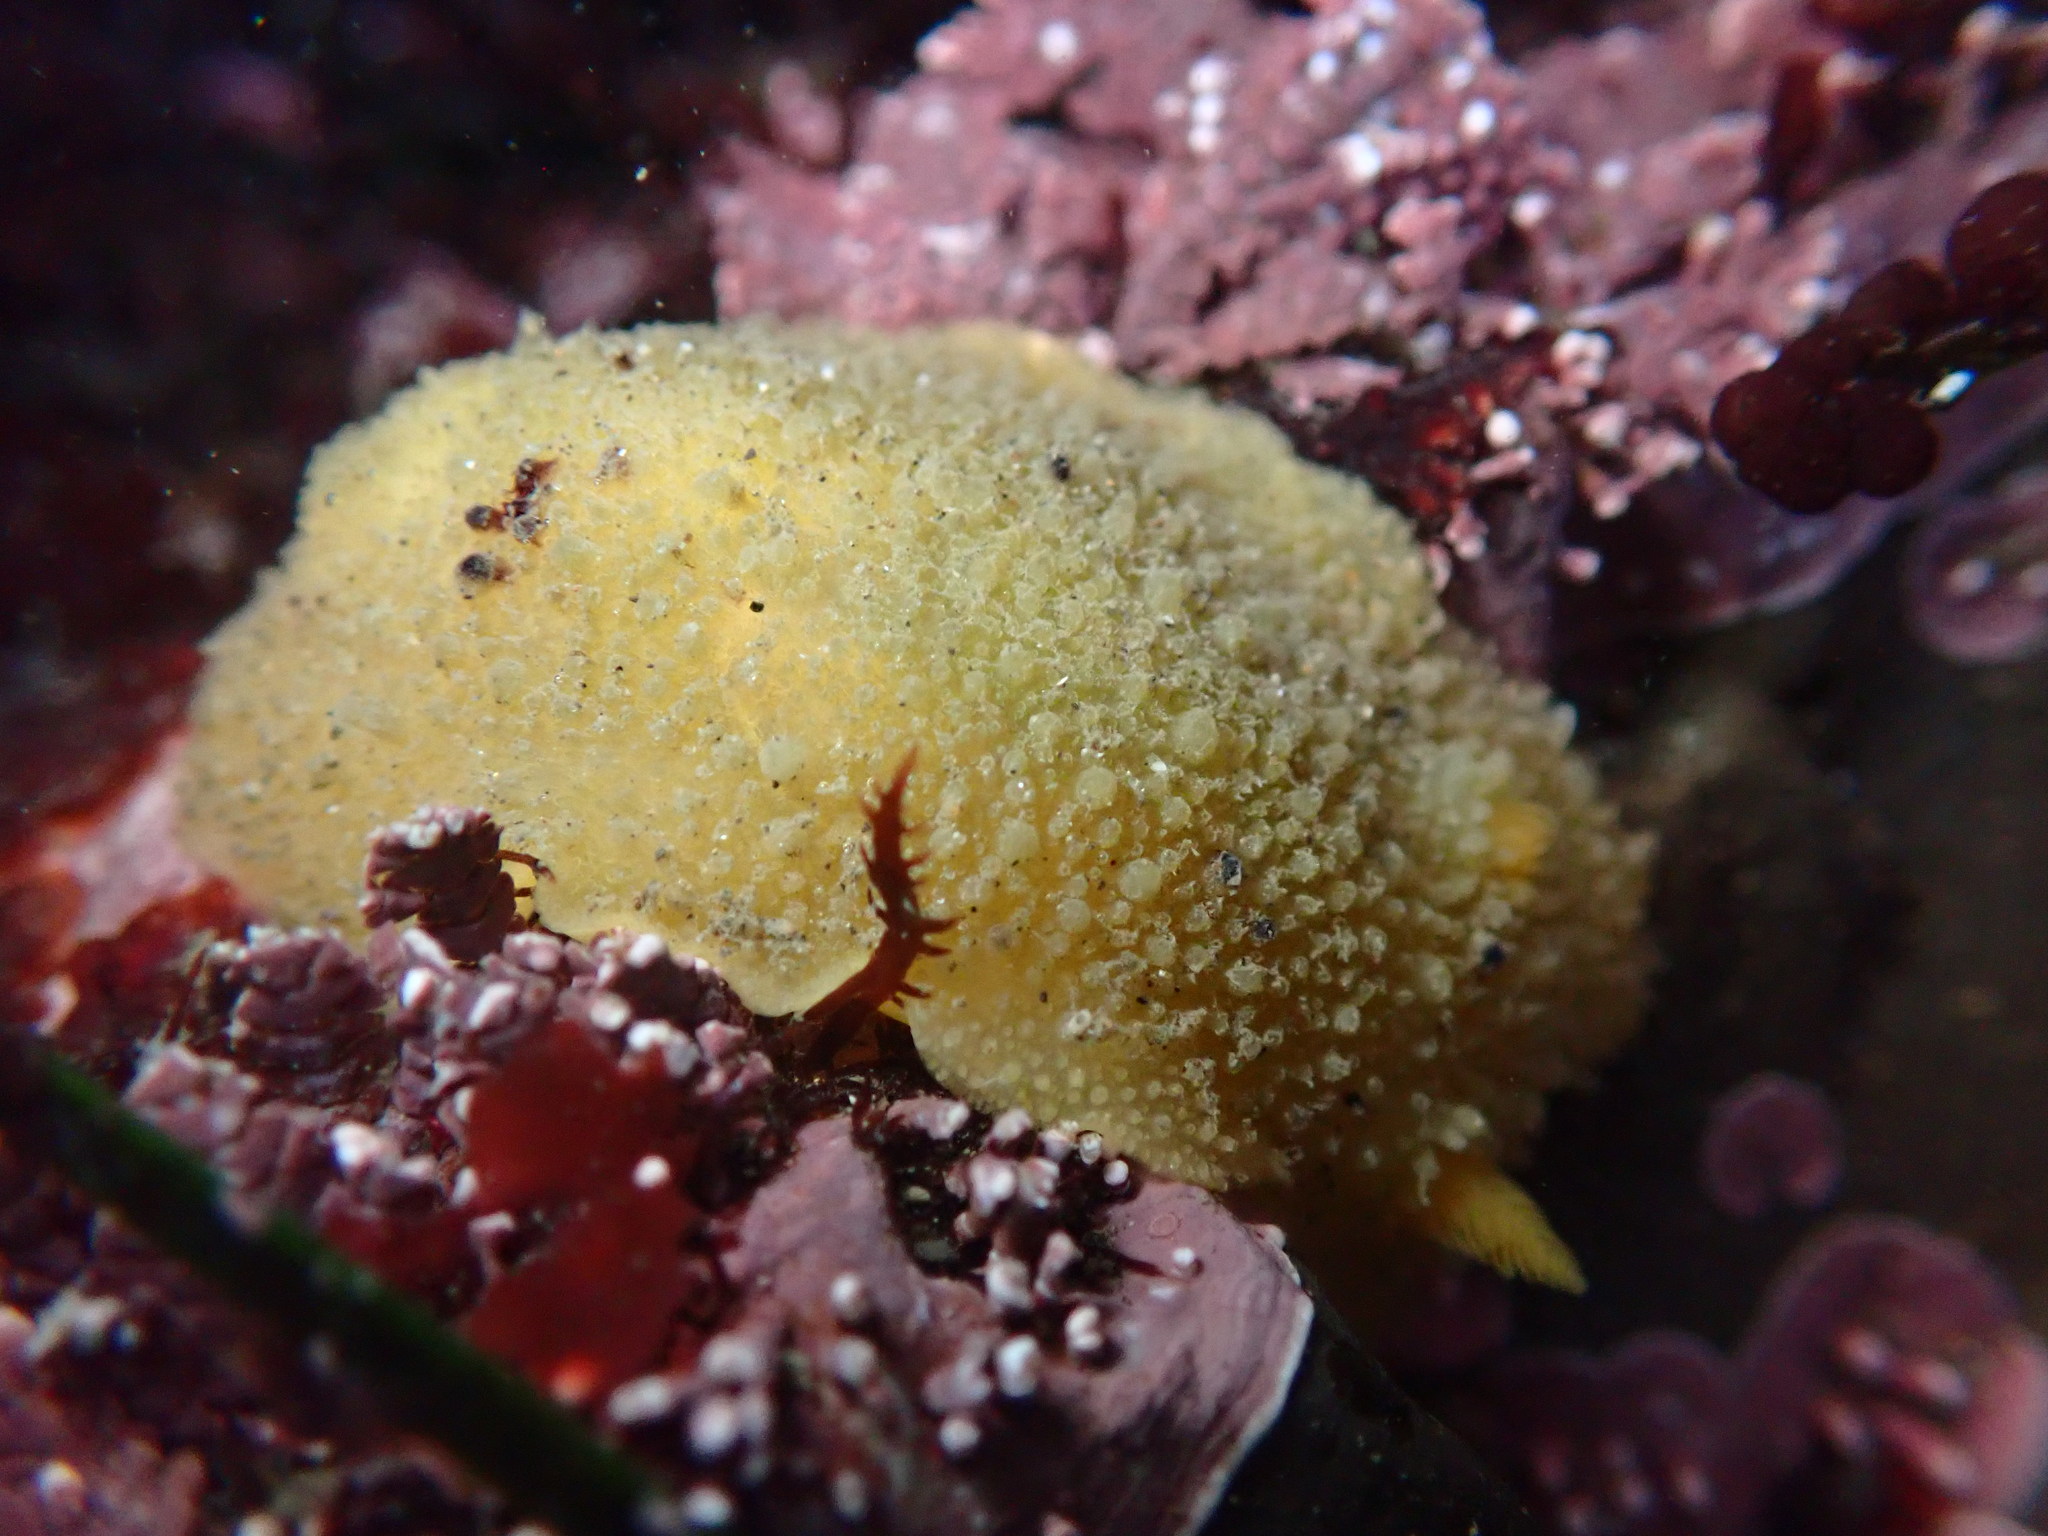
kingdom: Animalia
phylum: Mollusca
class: Gastropoda
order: Nudibranchia
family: Dorididae
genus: Doris
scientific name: Doris montereyensis
